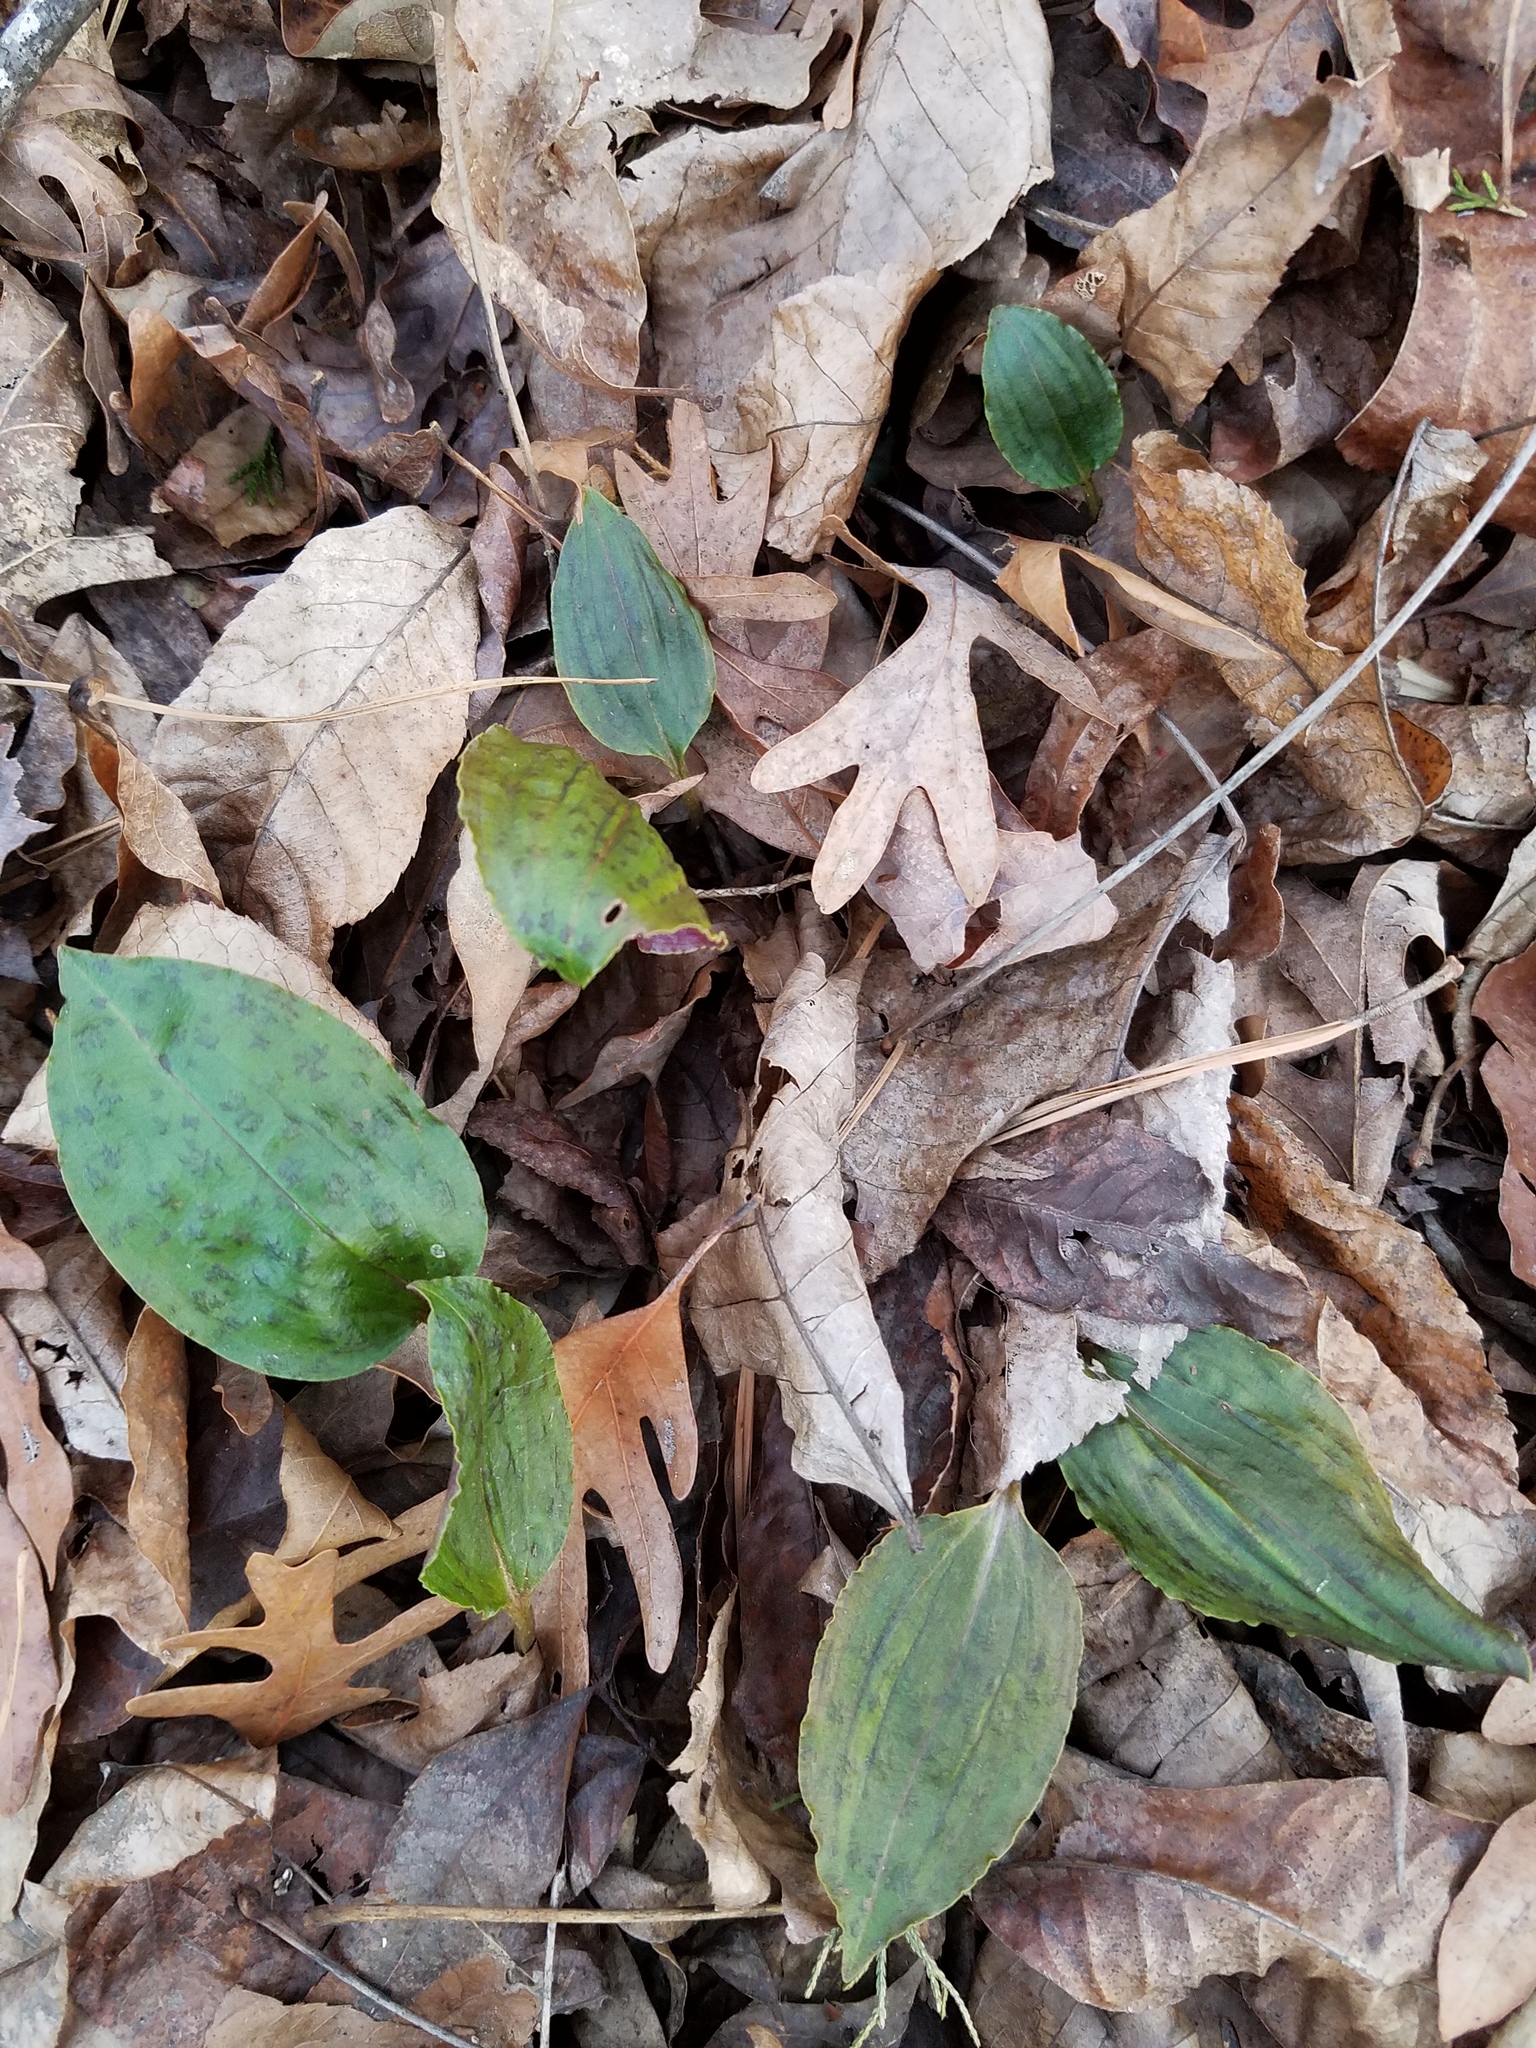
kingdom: Plantae
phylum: Tracheophyta
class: Liliopsida
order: Asparagales
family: Orchidaceae
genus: Tipularia
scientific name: Tipularia discolor
